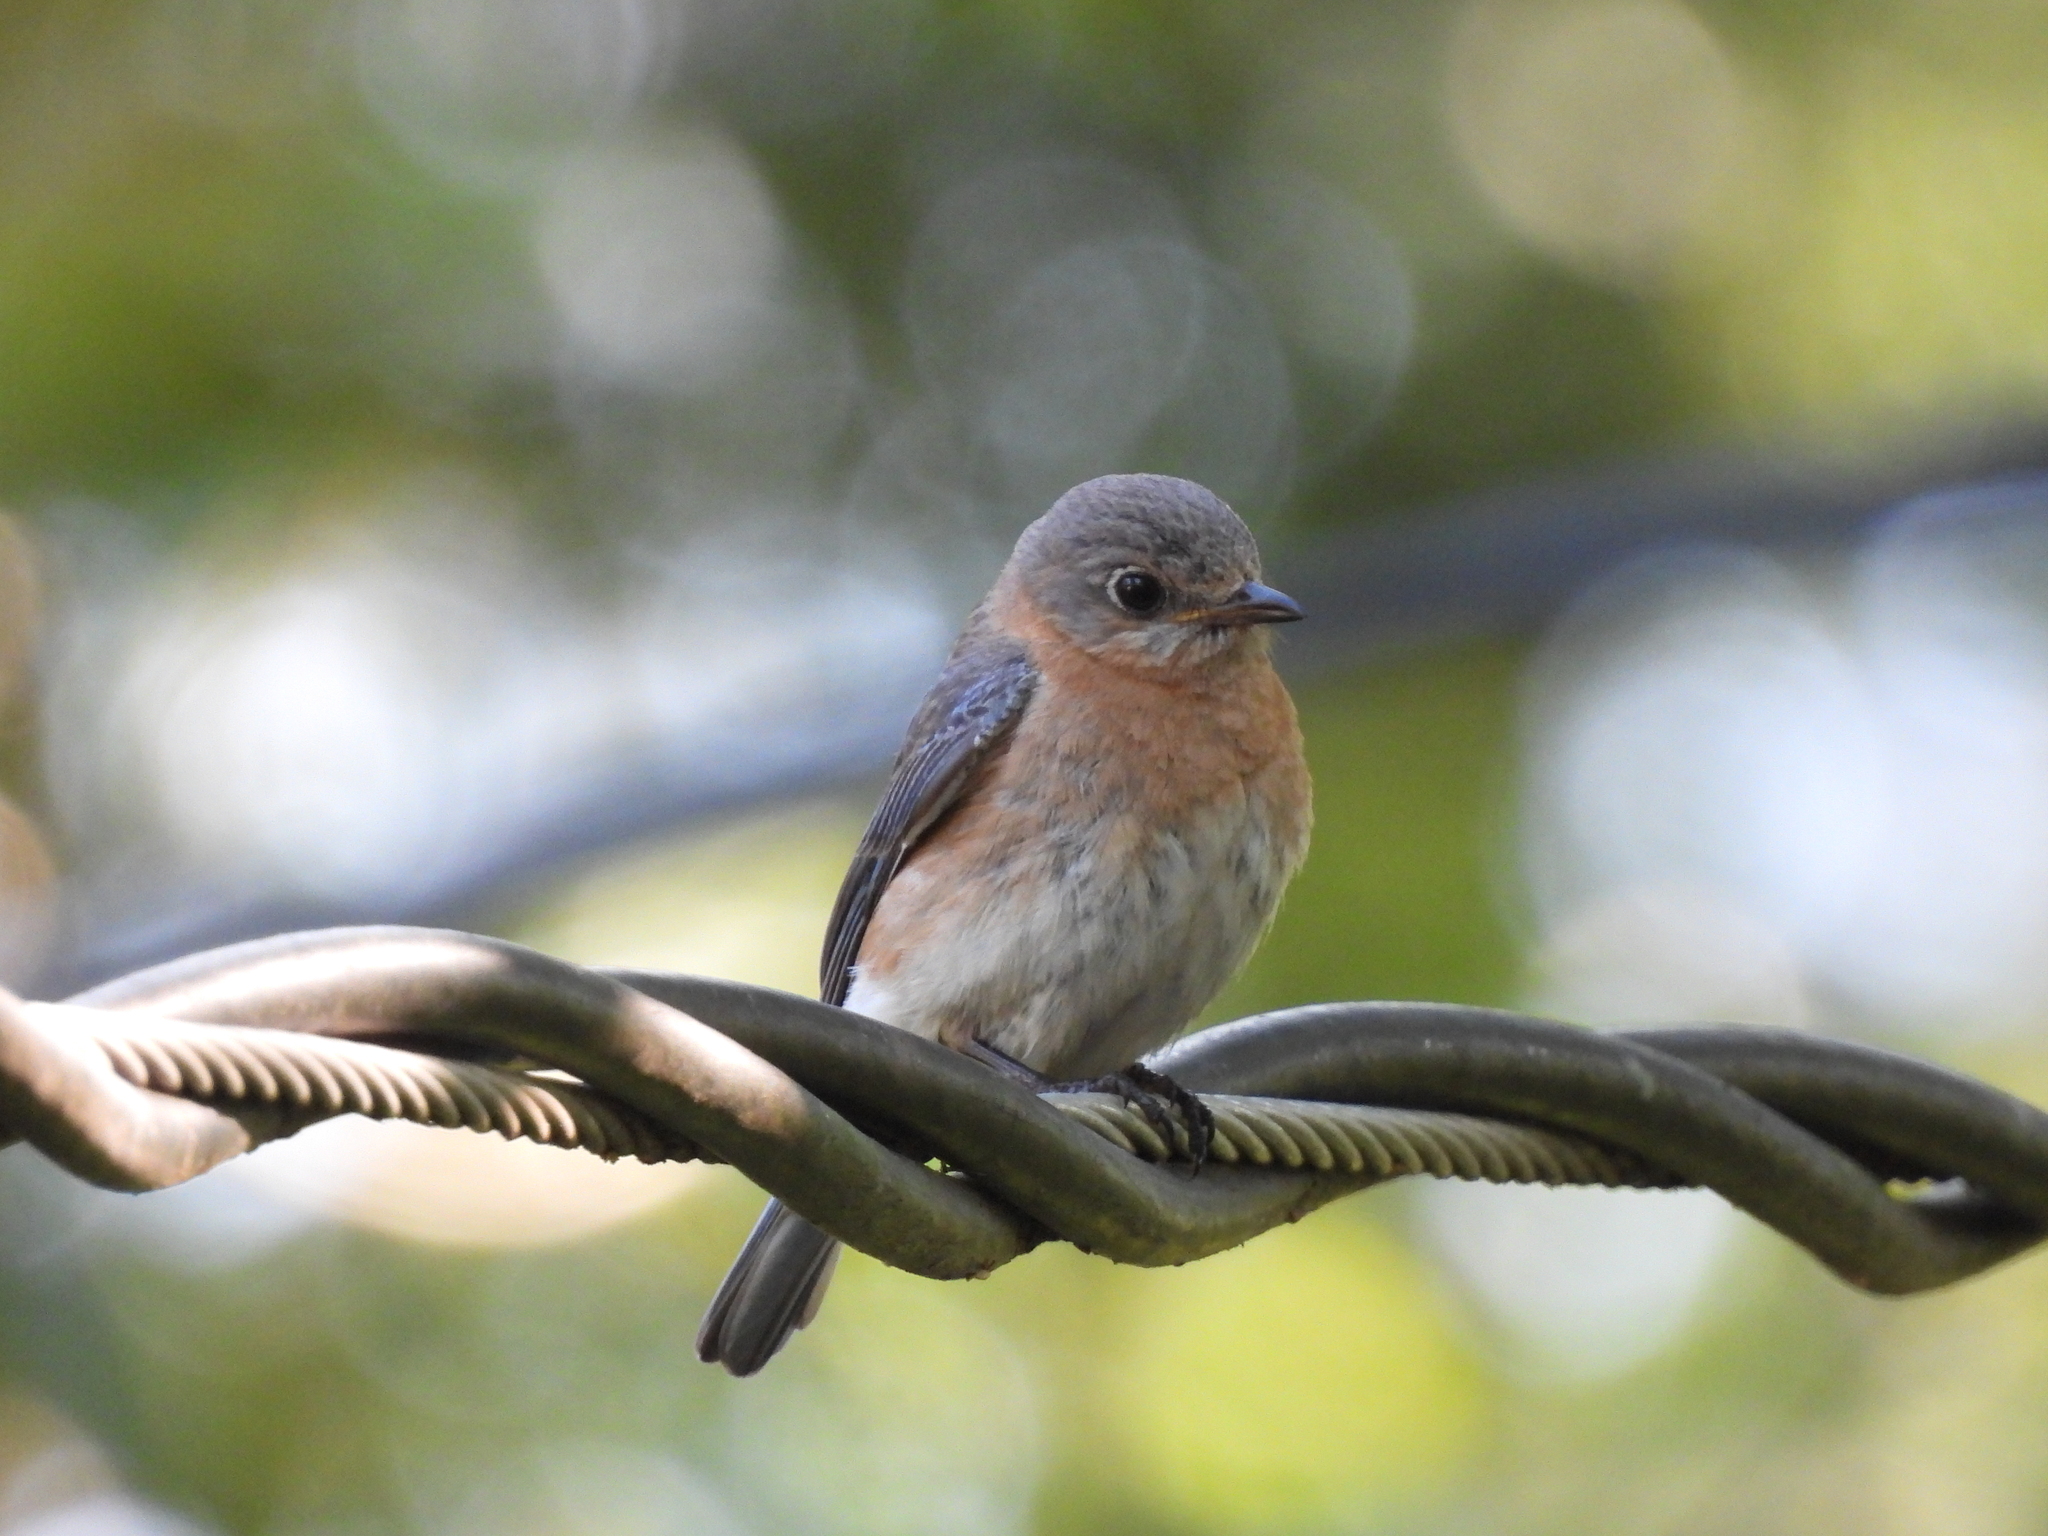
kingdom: Animalia
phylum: Chordata
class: Aves
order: Passeriformes
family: Turdidae
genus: Sialia
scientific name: Sialia sialis
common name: Eastern bluebird
